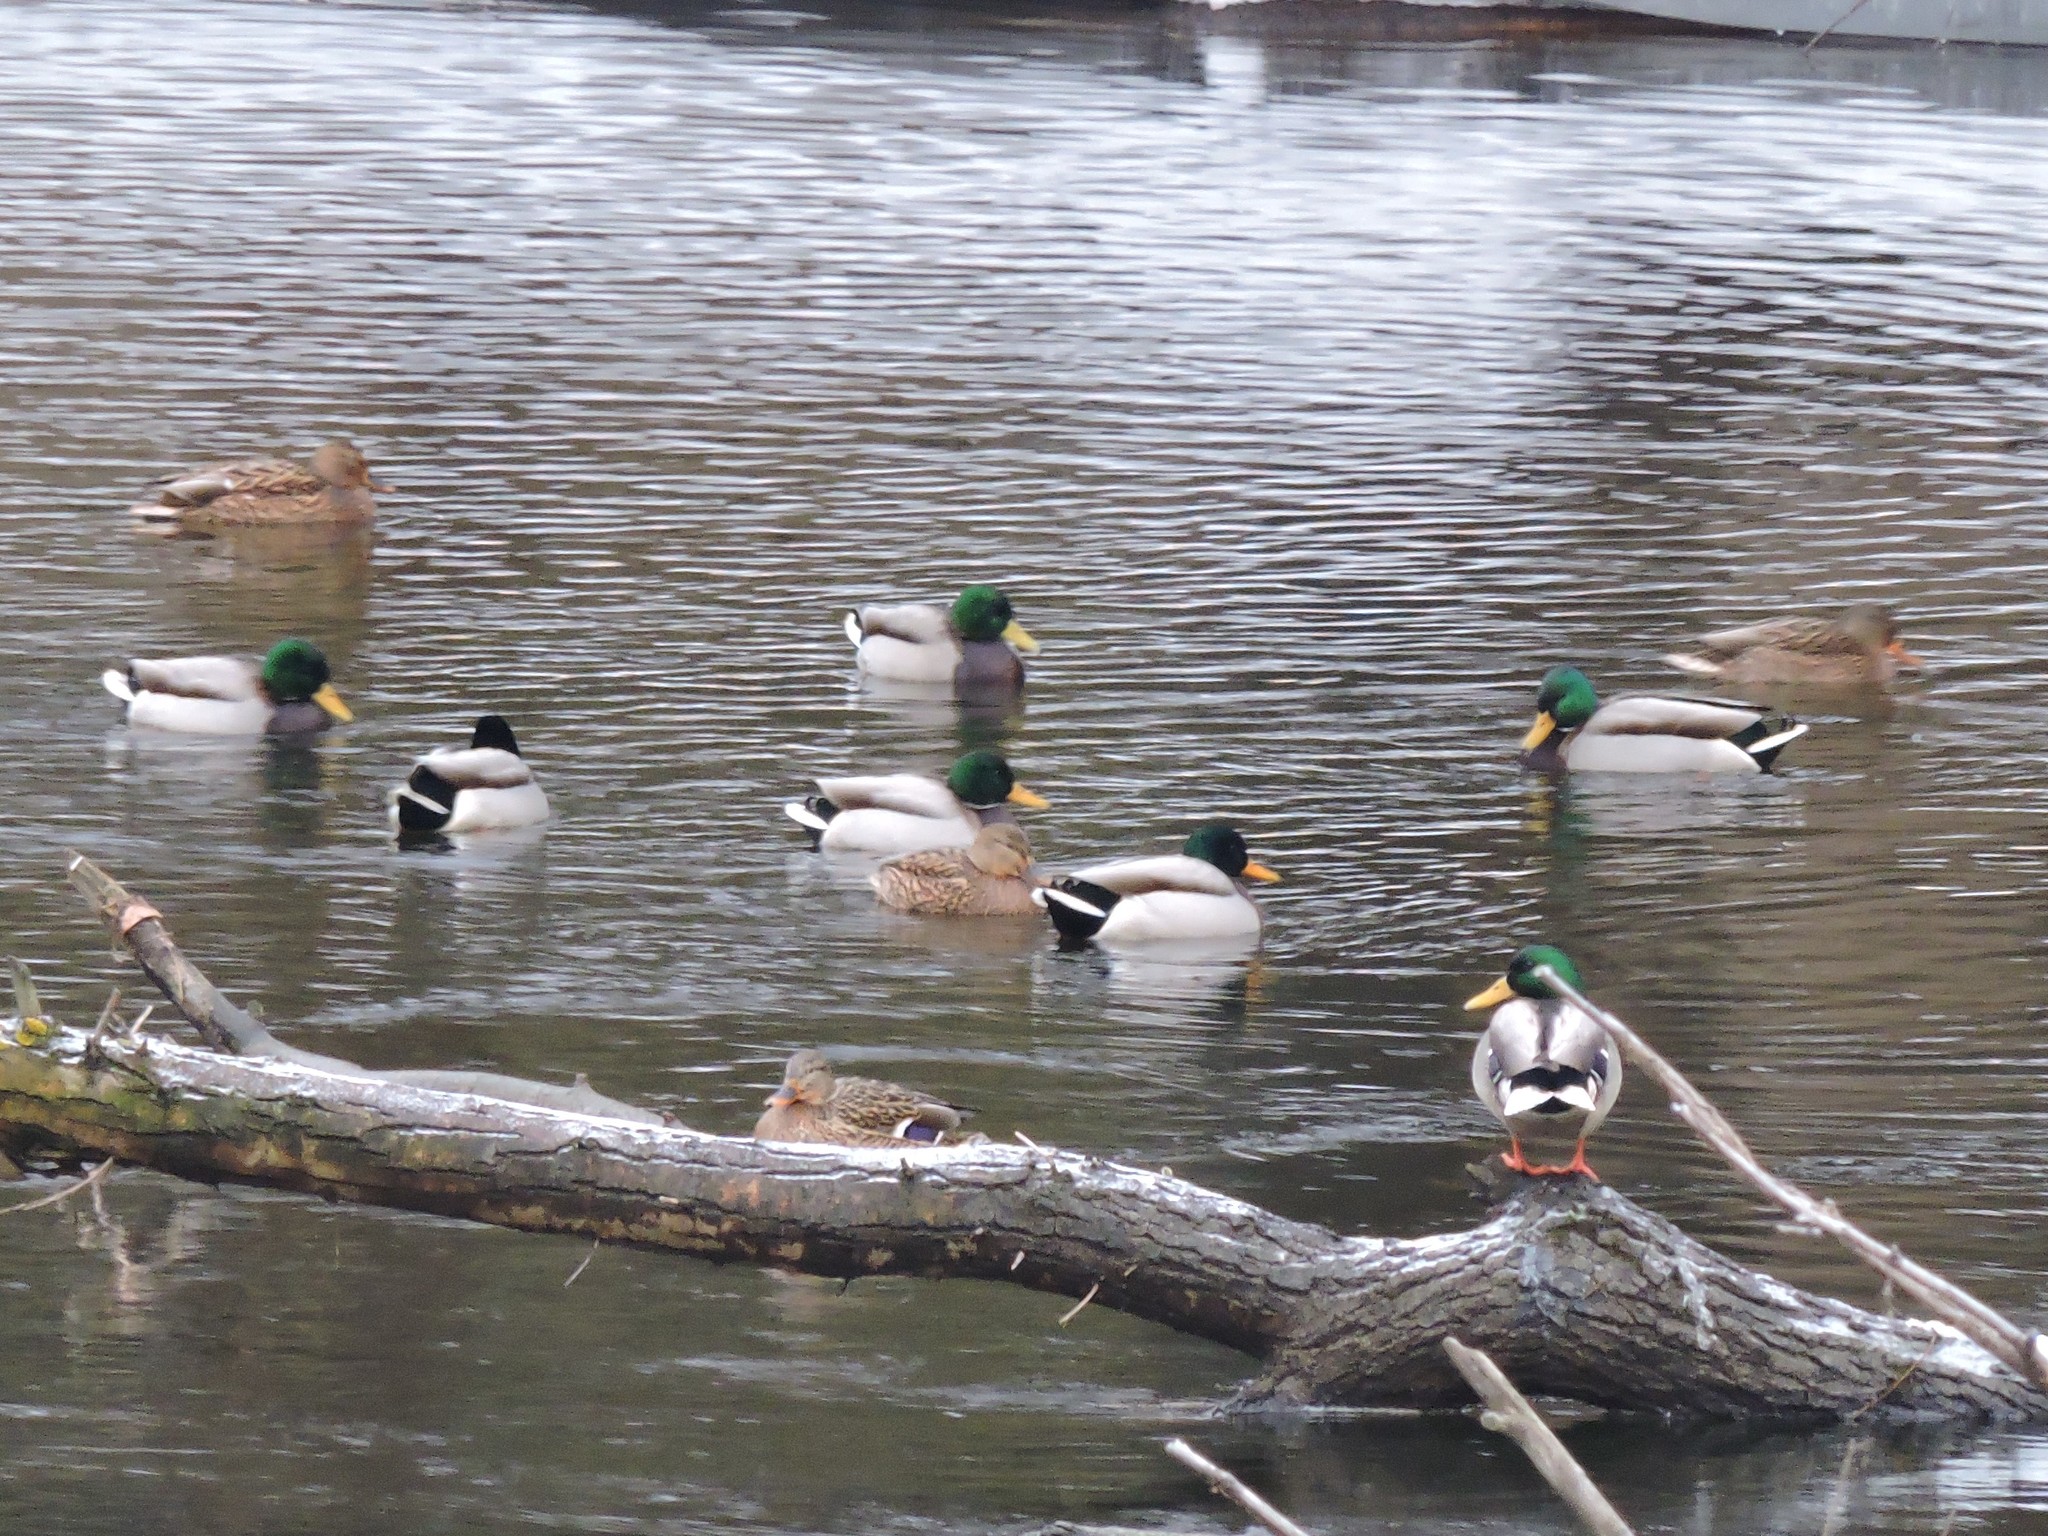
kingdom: Animalia
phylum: Chordata
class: Aves
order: Anseriformes
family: Anatidae
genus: Anas
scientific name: Anas platyrhynchos
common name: Mallard
